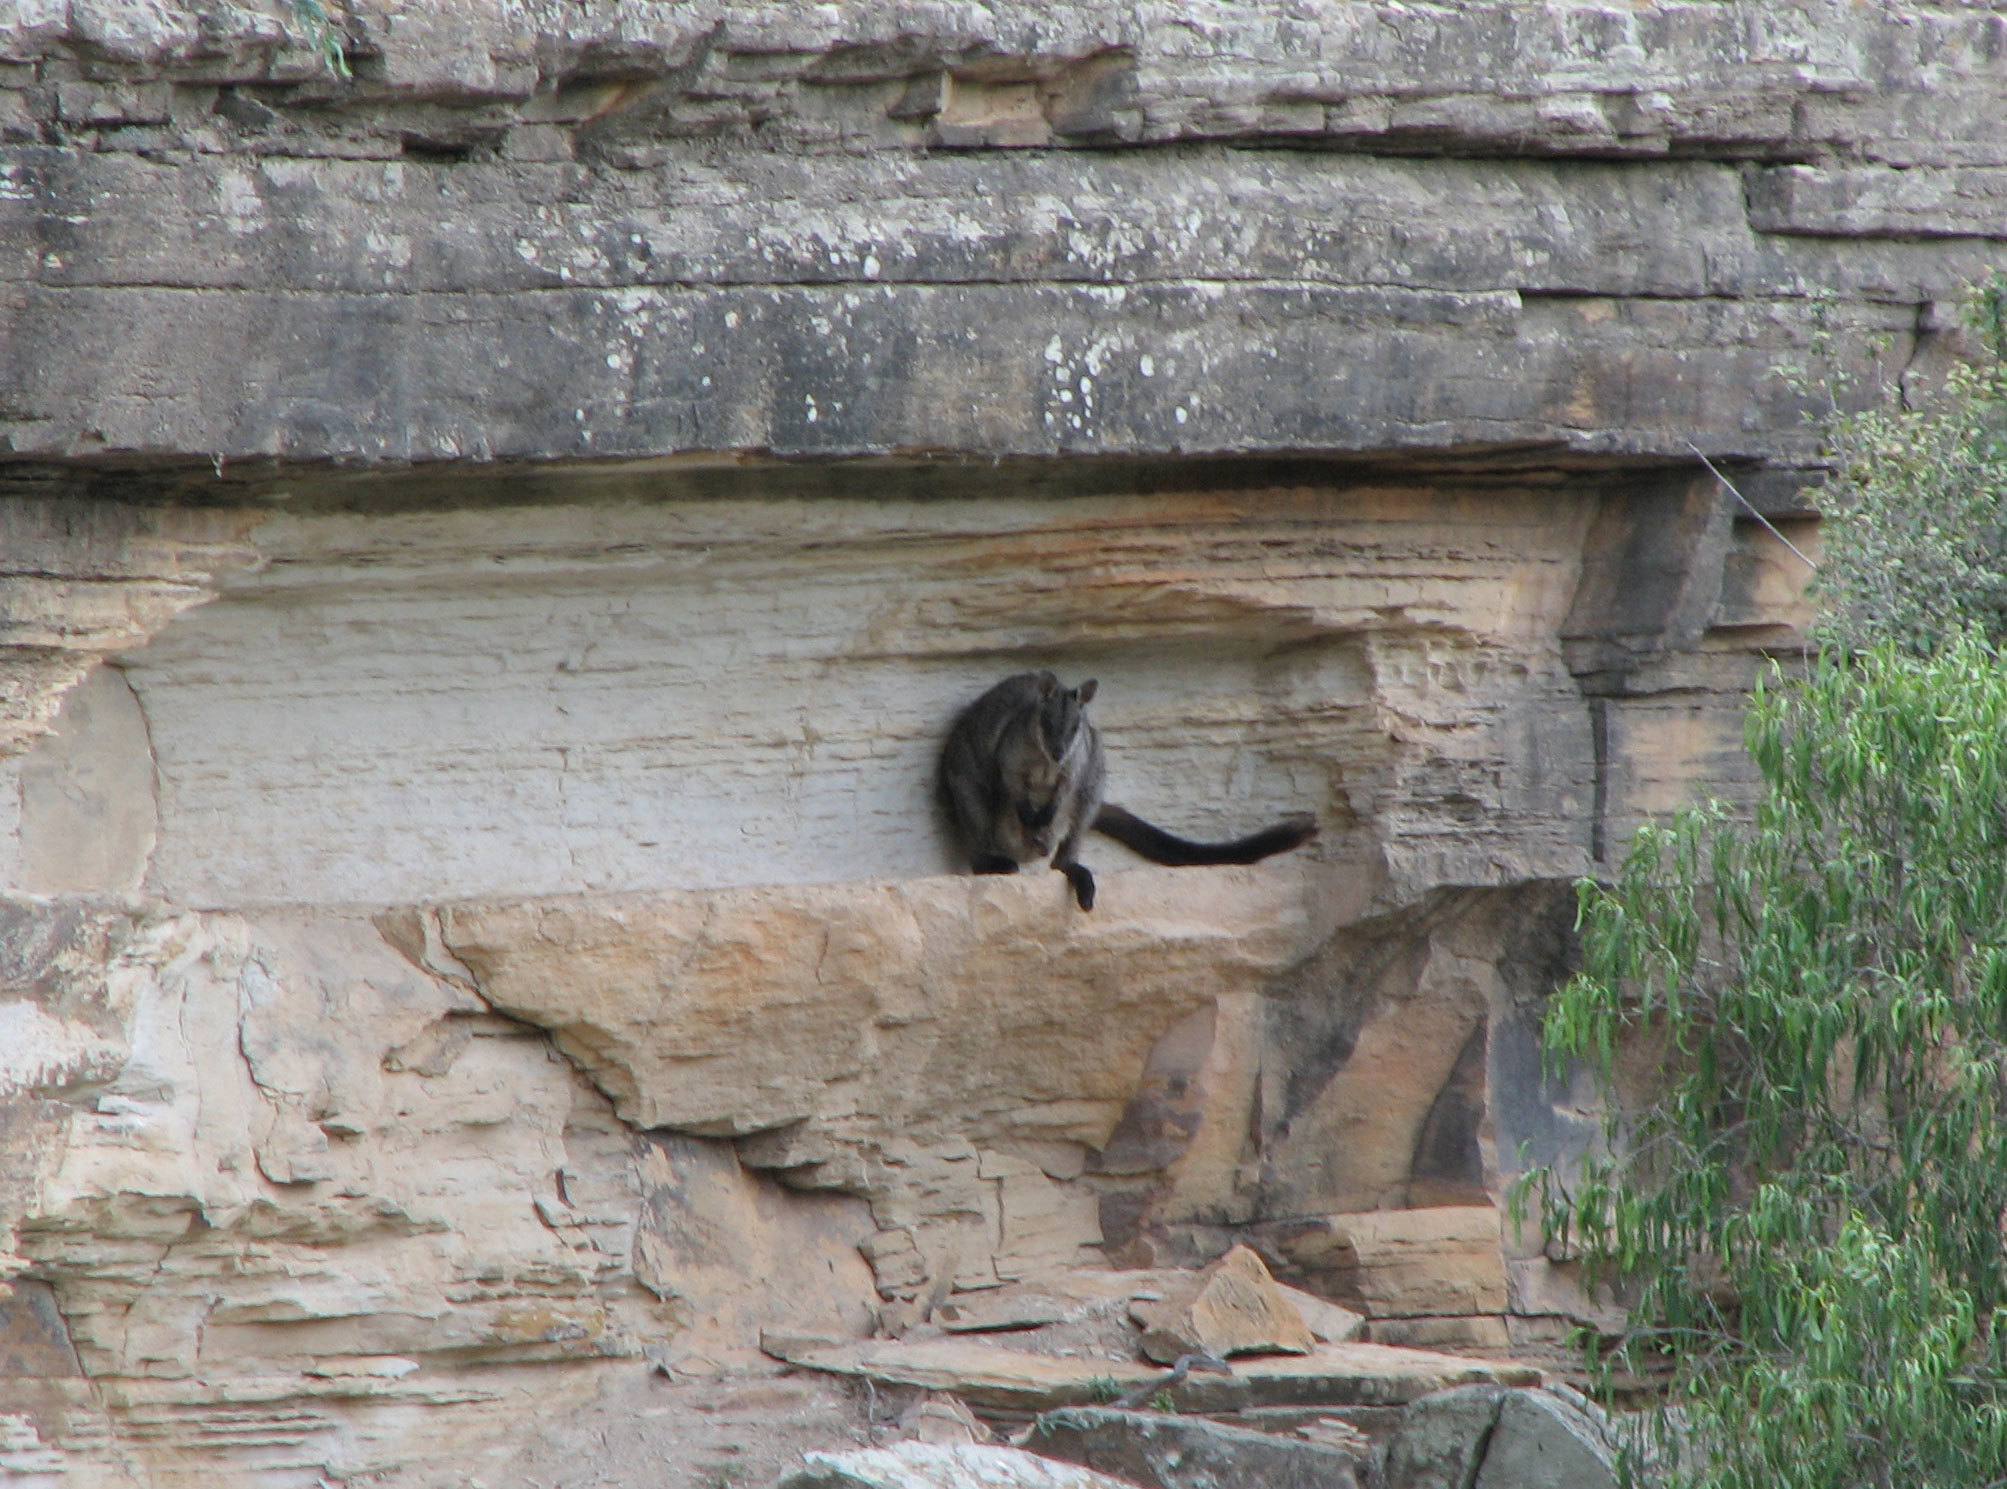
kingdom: Animalia
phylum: Chordata
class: Mammalia
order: Diprotodontia
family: Macropodidae
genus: Petrogale
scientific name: Petrogale purpureicollis
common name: Purple-necked rock-wallaby
